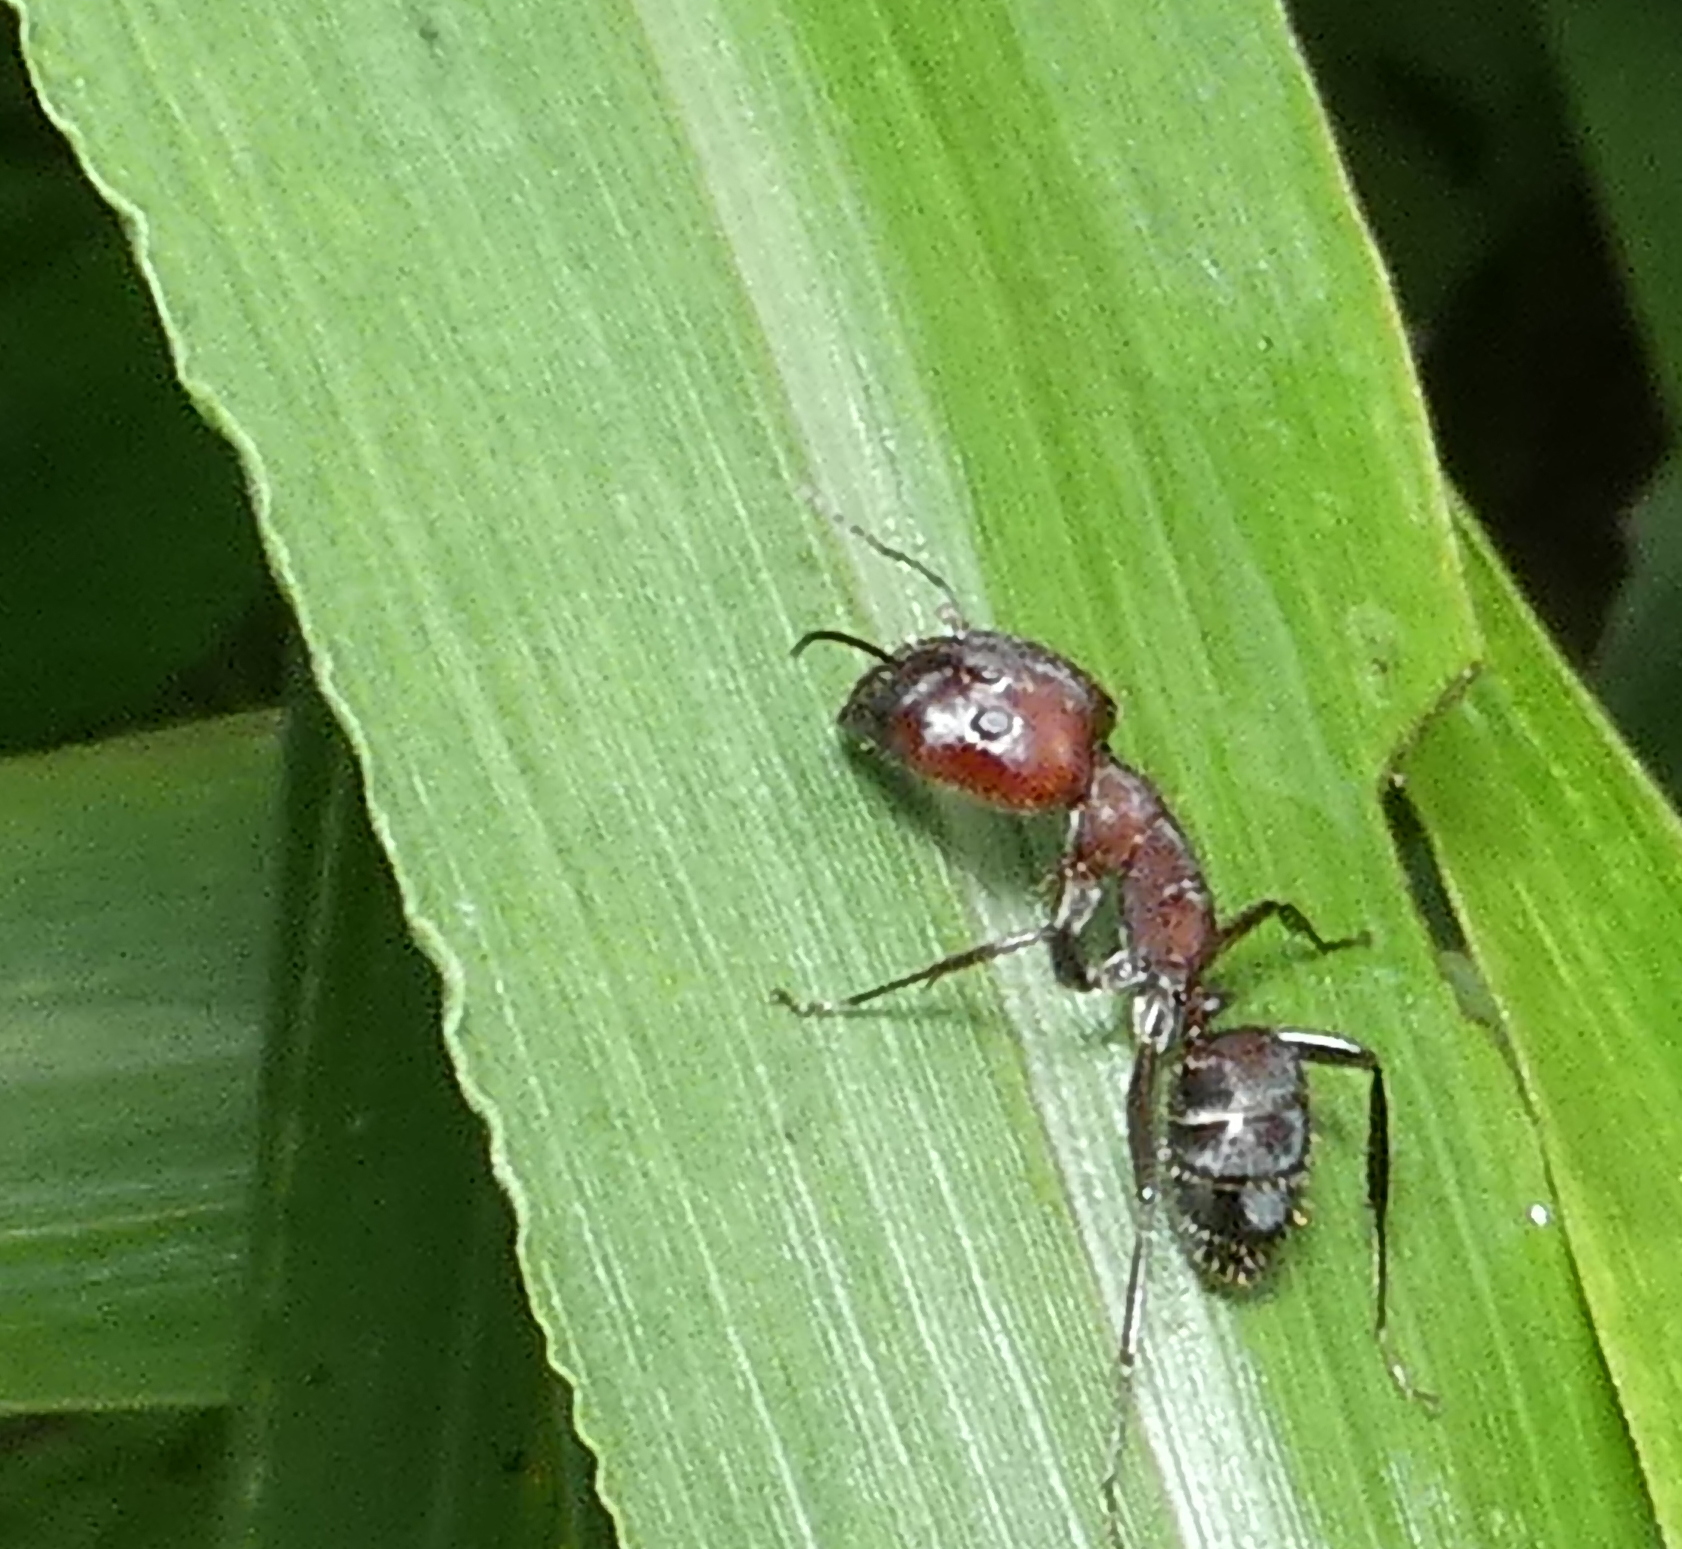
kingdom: Animalia
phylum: Arthropoda
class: Insecta
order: Hymenoptera
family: Formicidae
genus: Camponotus
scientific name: Camponotus leydigi
